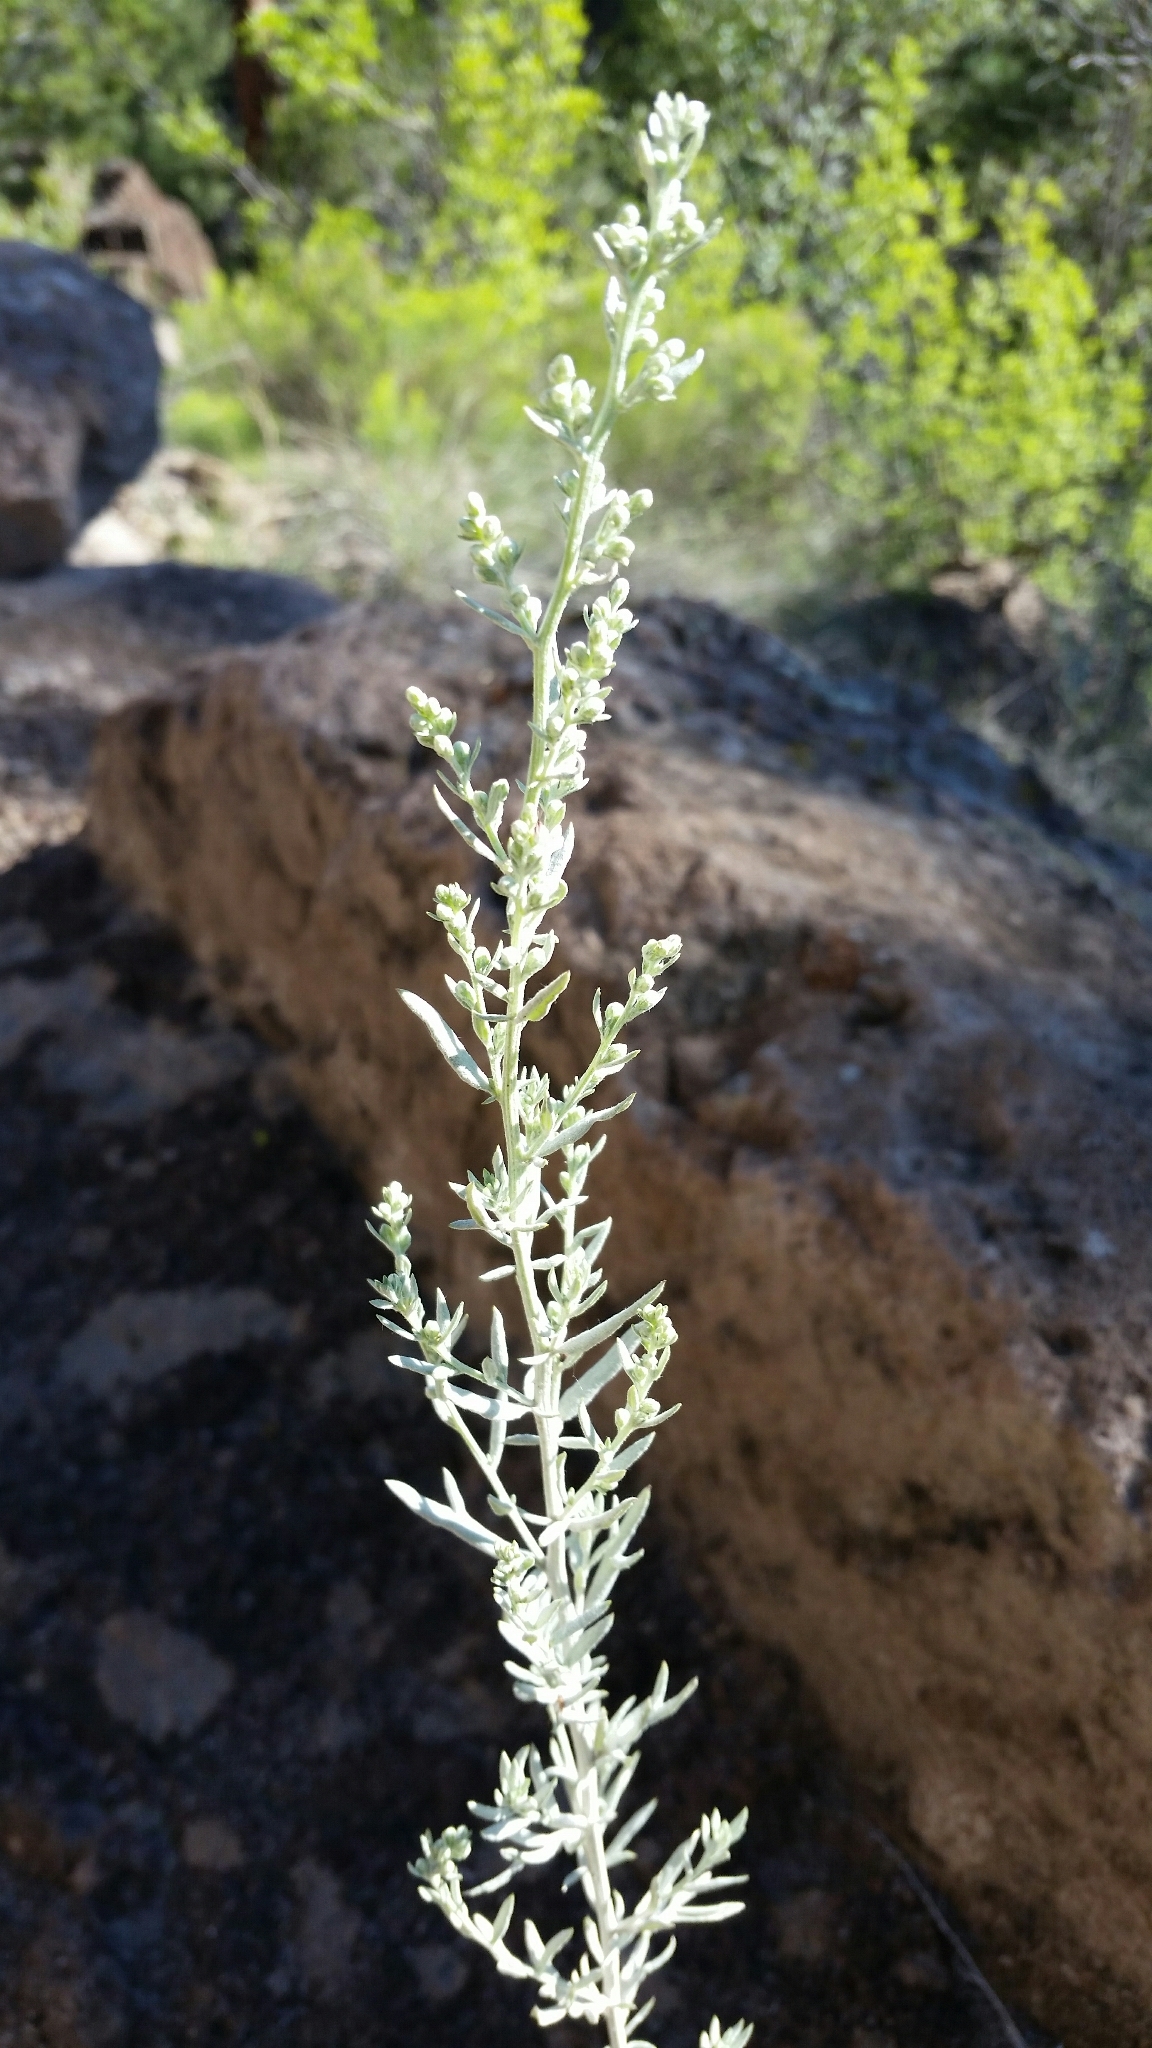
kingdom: Plantae
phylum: Tracheophyta
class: Magnoliopsida
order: Asterales
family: Asteraceae
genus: Artemisia
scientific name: Artemisia ludoviciana
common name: Western mugwort
